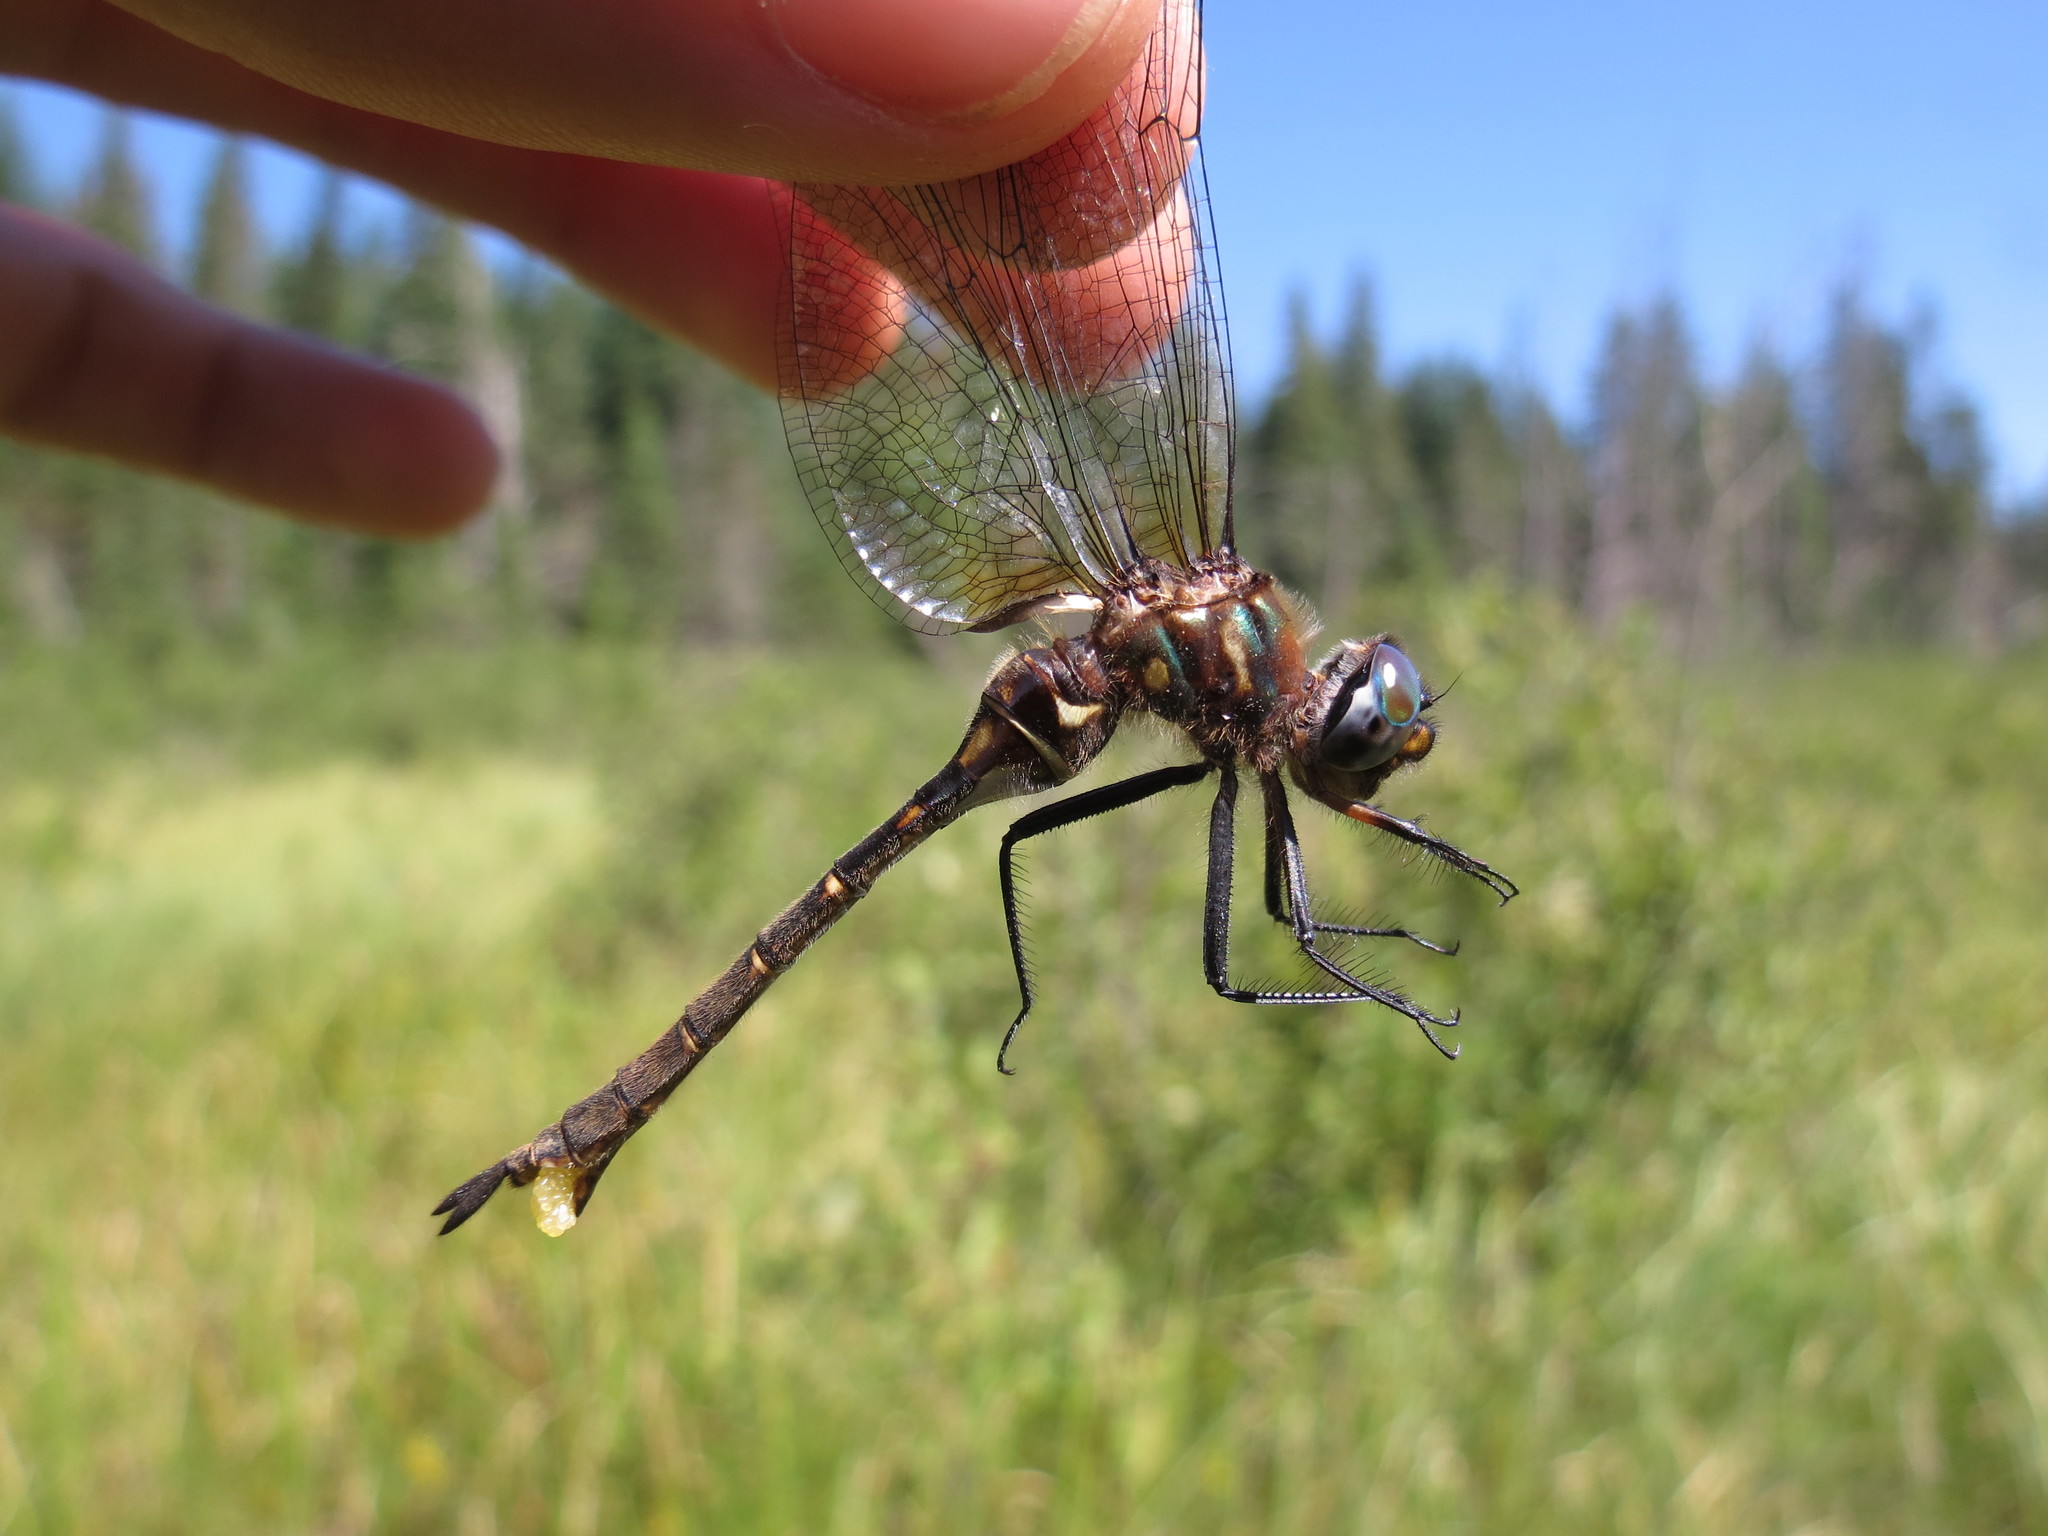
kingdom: Animalia
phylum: Arthropoda
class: Insecta
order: Odonata
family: Corduliidae
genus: Somatochlora
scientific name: Somatochlora walshii
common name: Brush-tipped emerald
